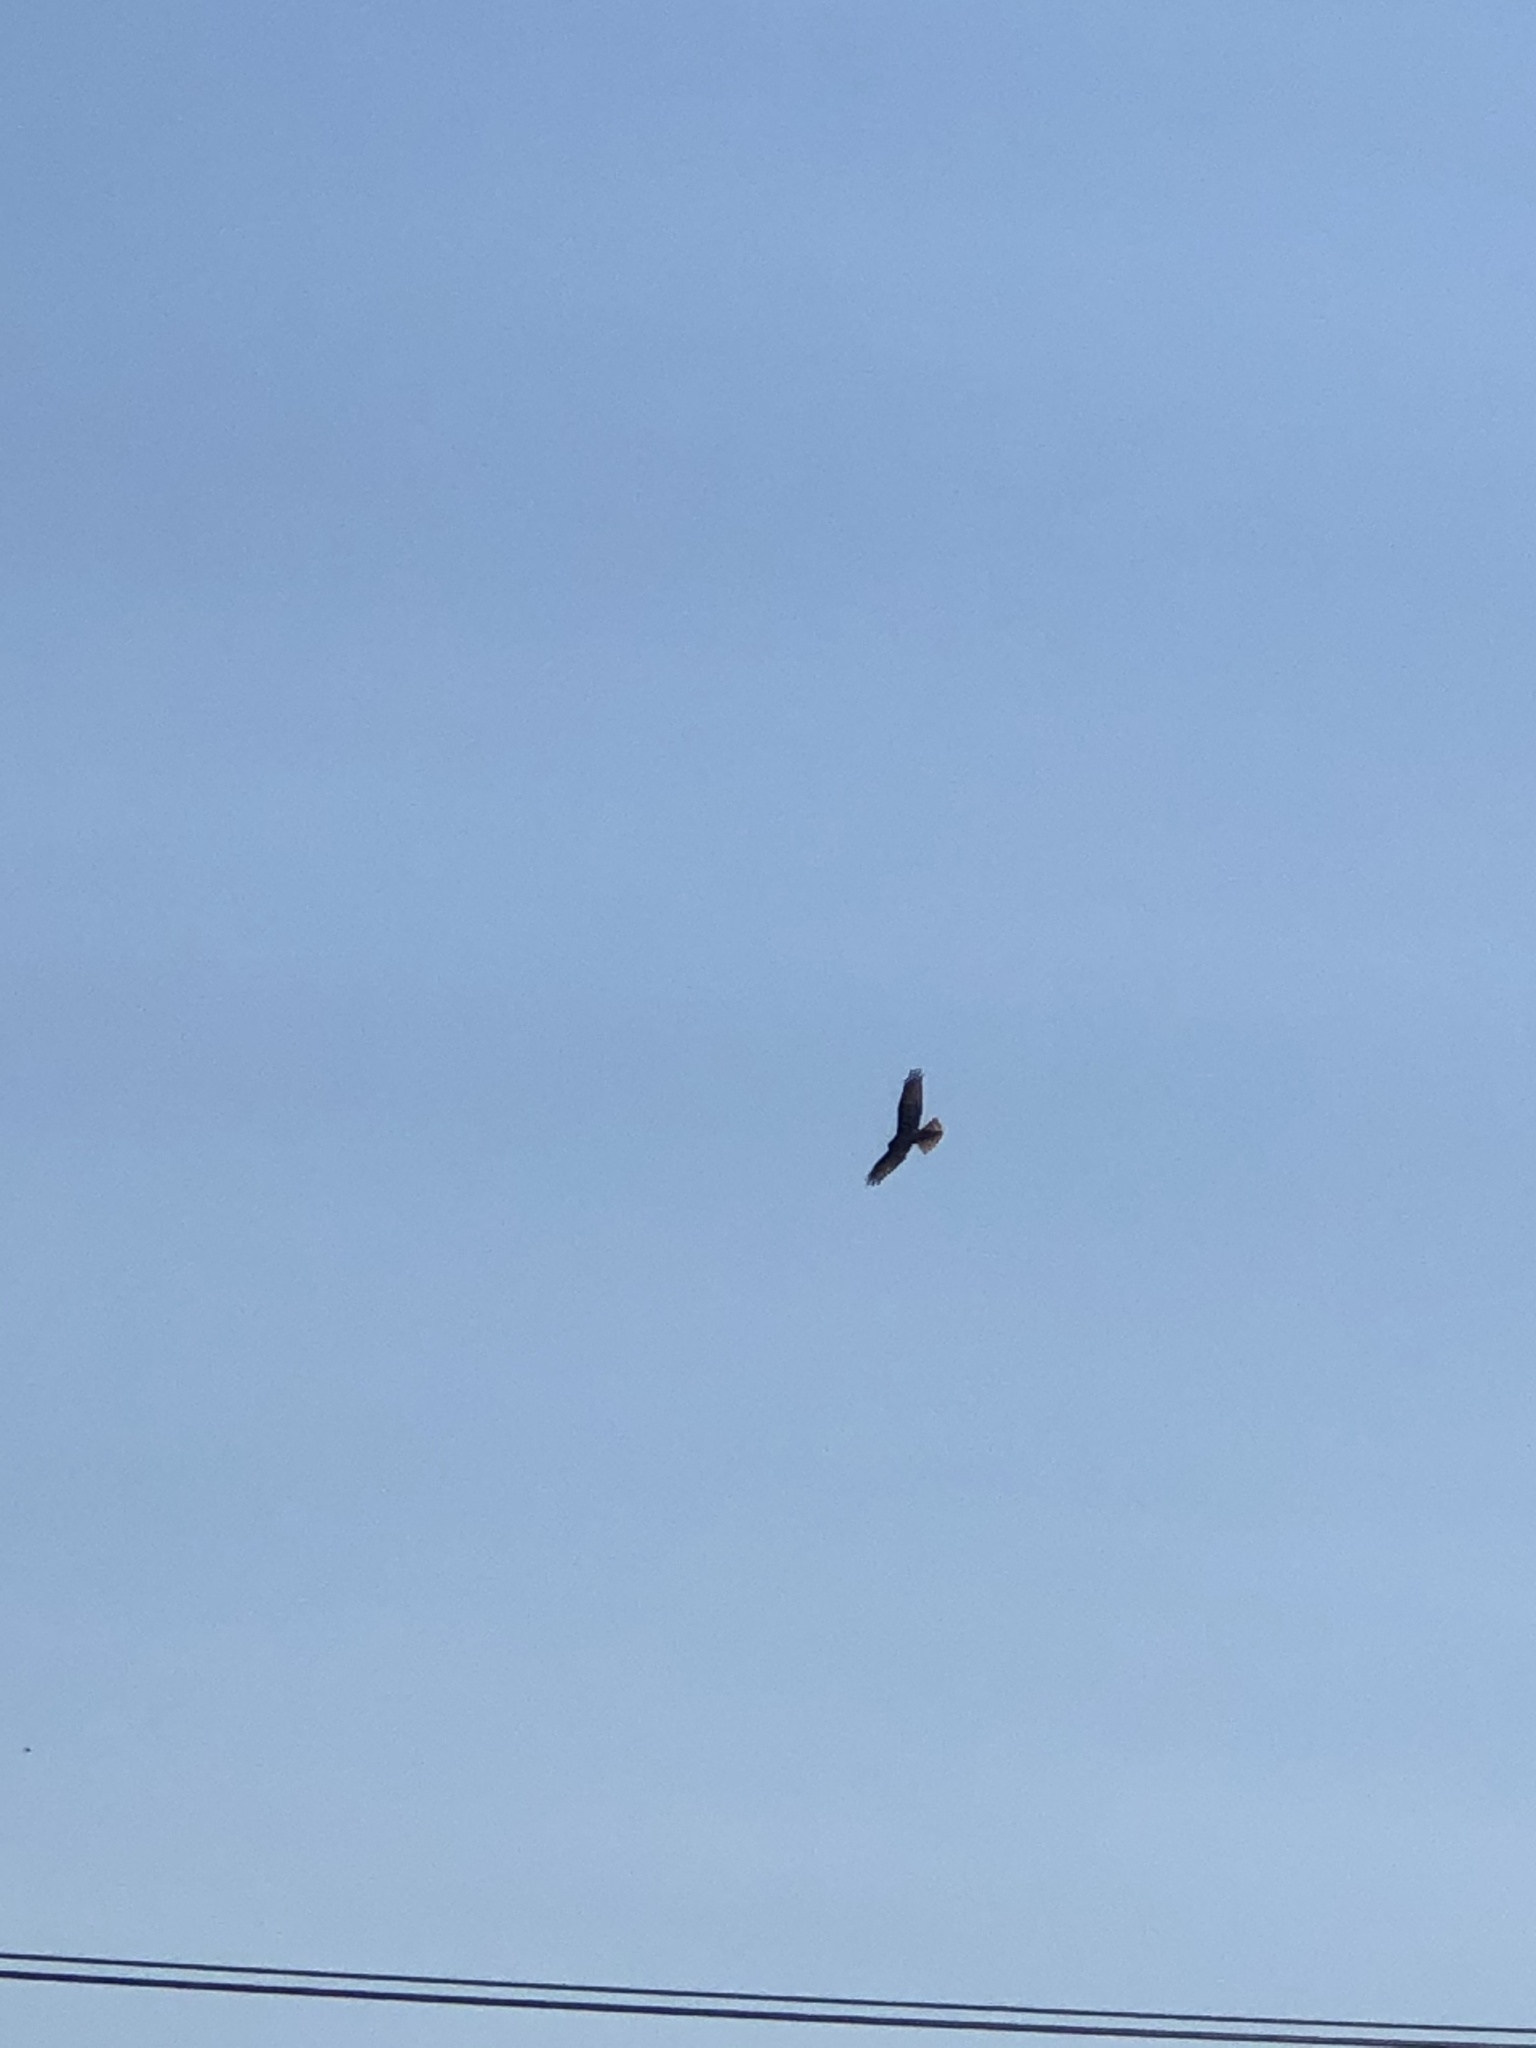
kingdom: Animalia
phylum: Chordata
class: Aves
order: Accipitriformes
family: Accipitridae
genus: Circus
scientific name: Circus approximans
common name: Swamp harrier
